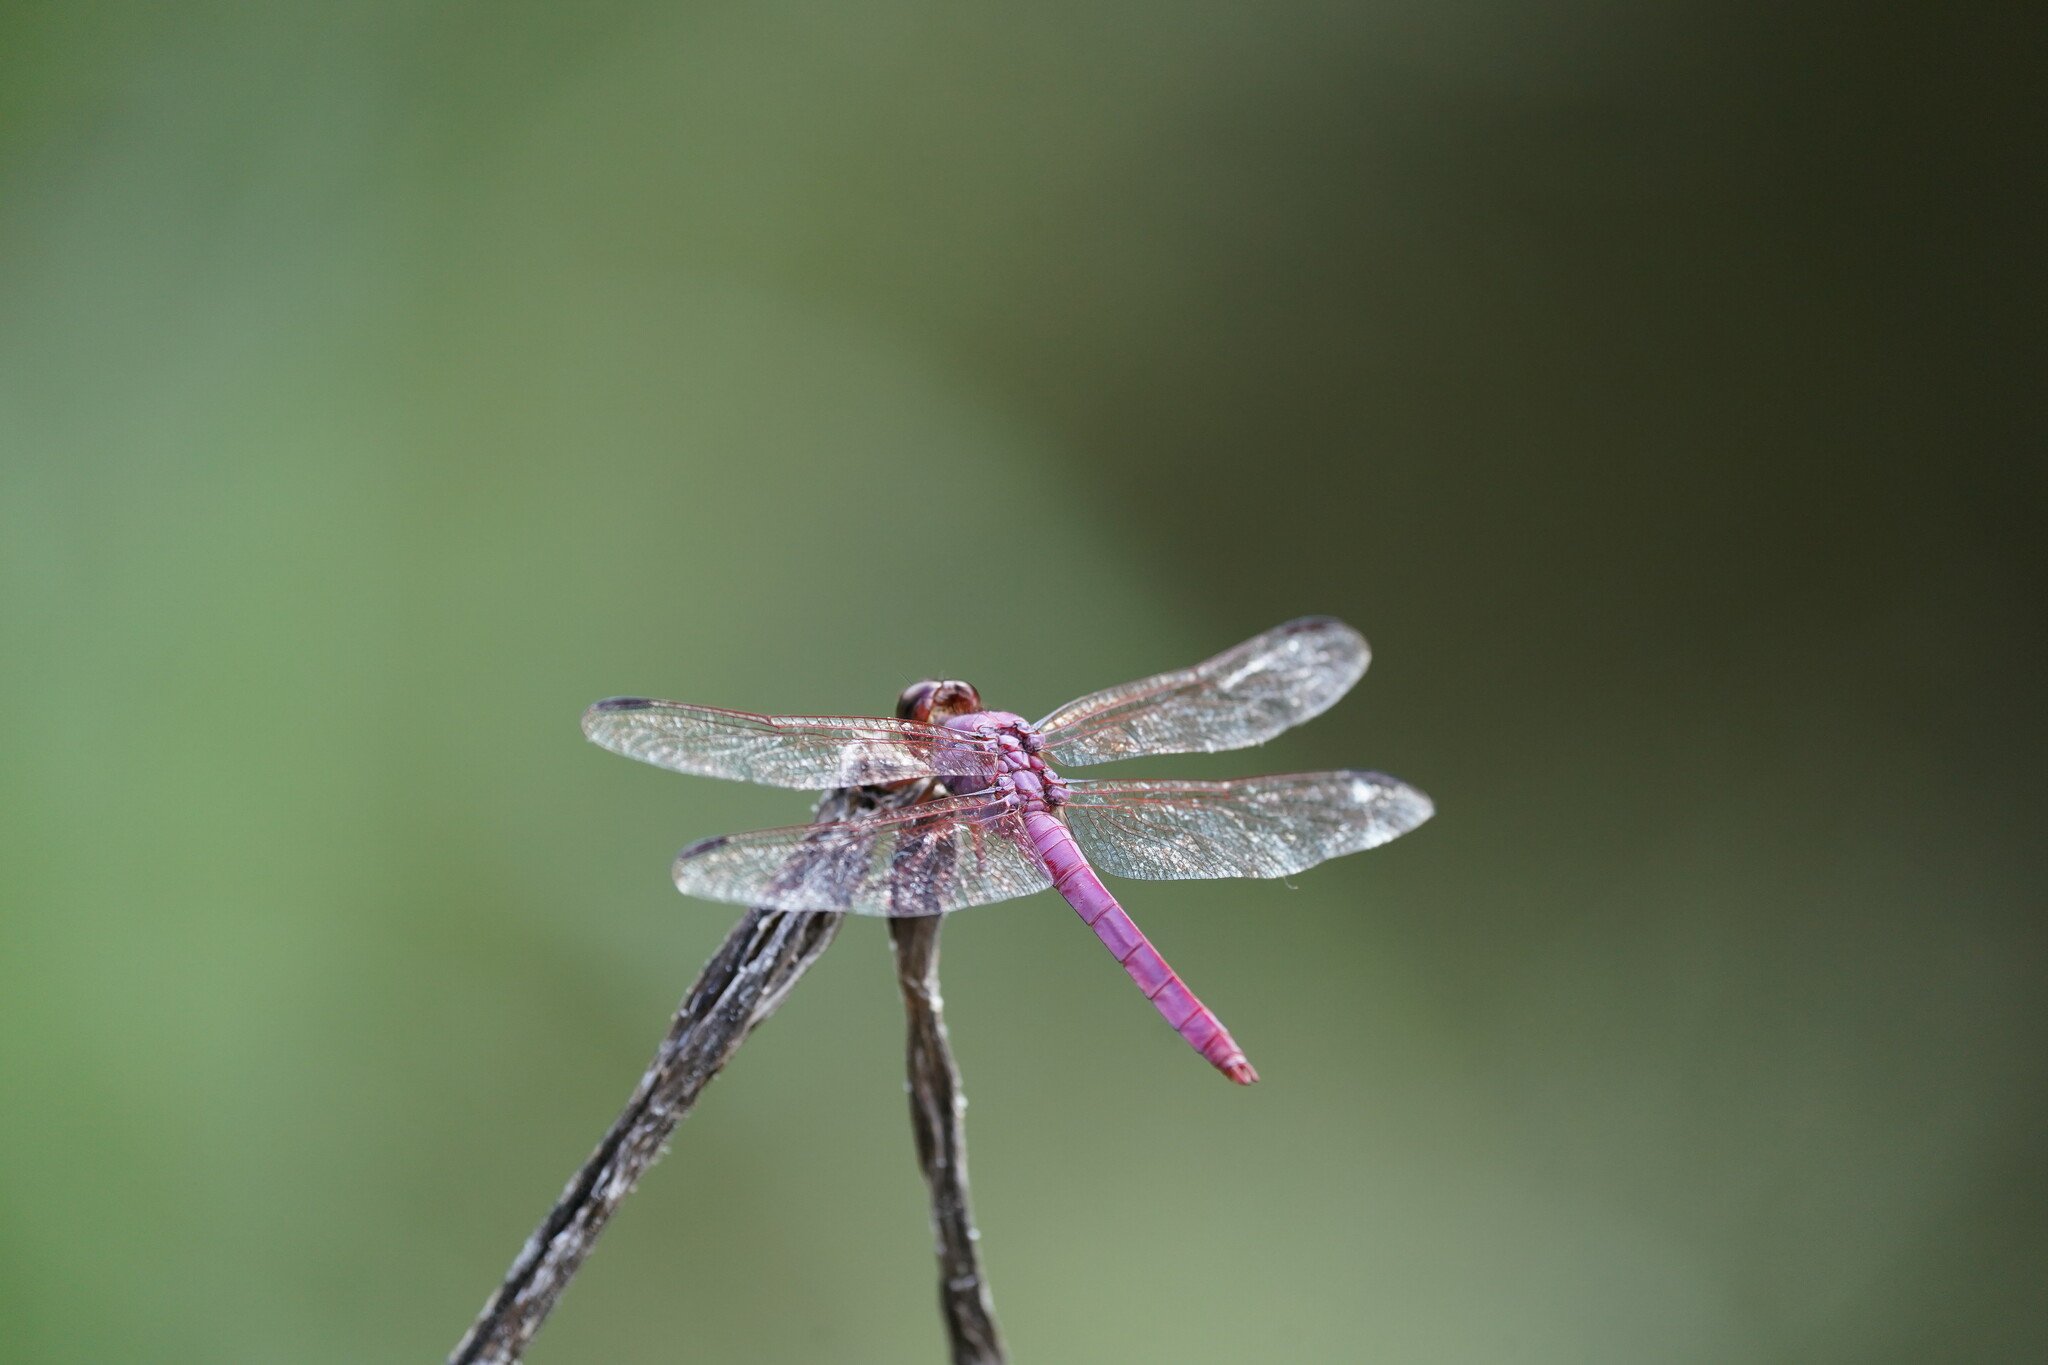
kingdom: Animalia
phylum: Arthropoda
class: Insecta
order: Odonata
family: Libellulidae
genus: Orthemis
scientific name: Orthemis ferruginea
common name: Roseate skimmer
